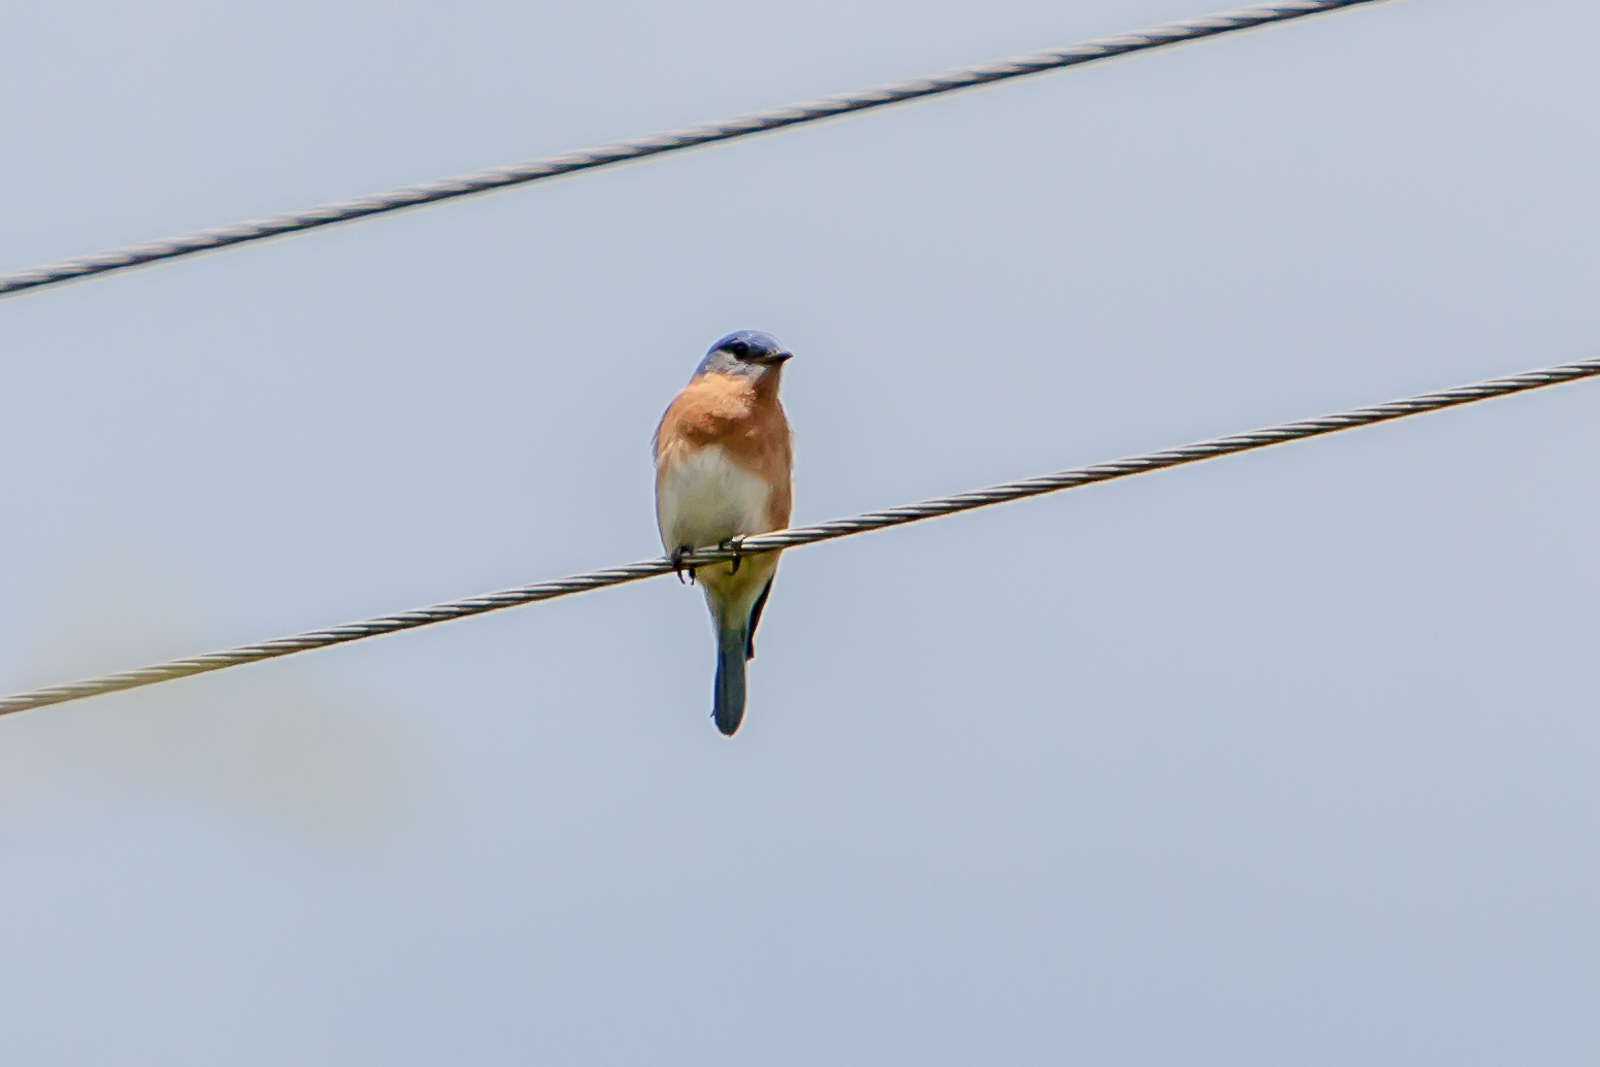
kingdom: Animalia
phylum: Chordata
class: Aves
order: Passeriformes
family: Turdidae
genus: Sialia
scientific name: Sialia sialis
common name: Eastern bluebird
